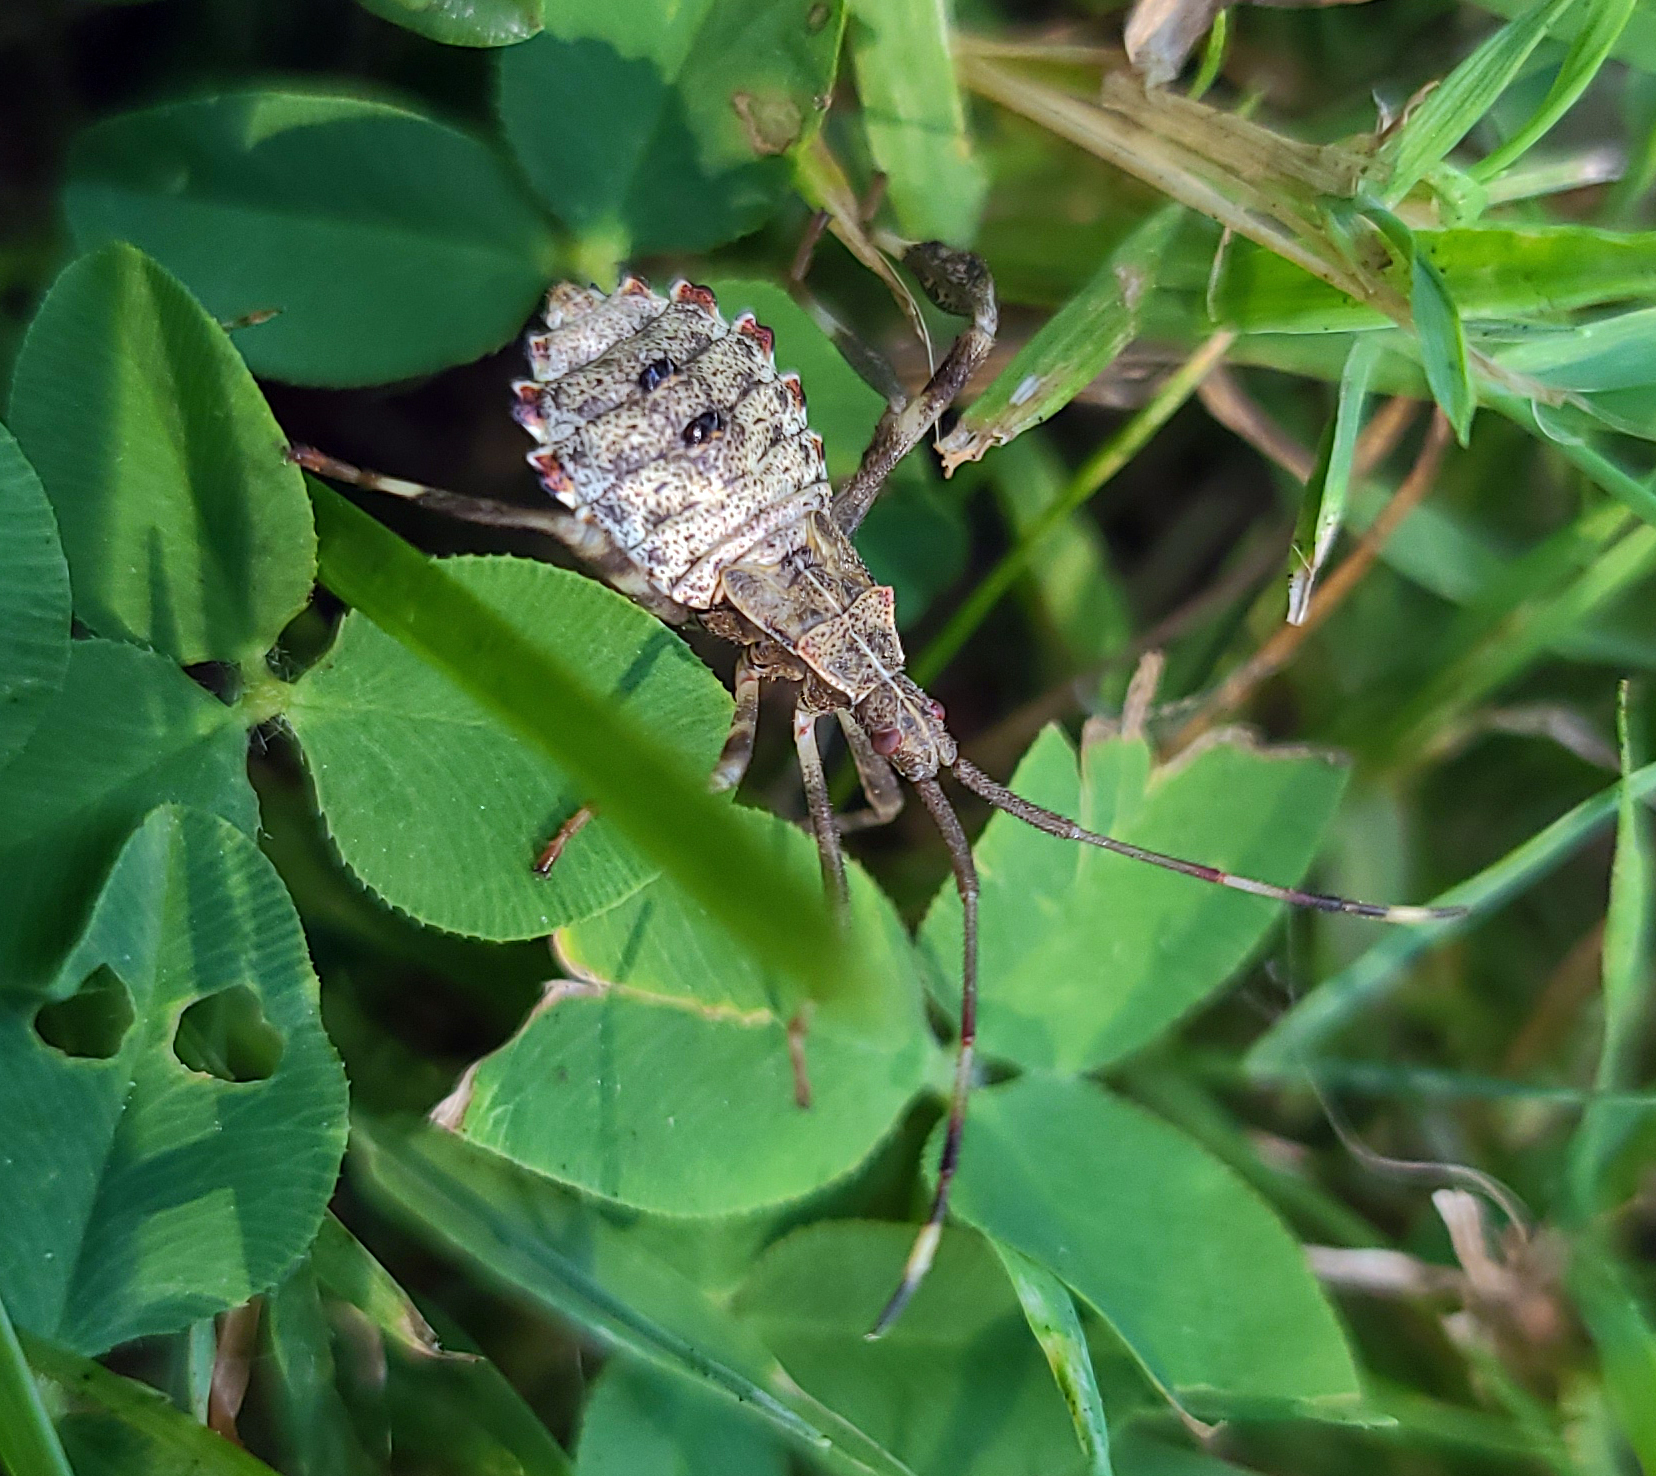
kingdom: Animalia
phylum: Arthropoda
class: Insecta
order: Hemiptera
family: Coreidae
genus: Acanthocephala
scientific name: Acanthocephala terminalis
